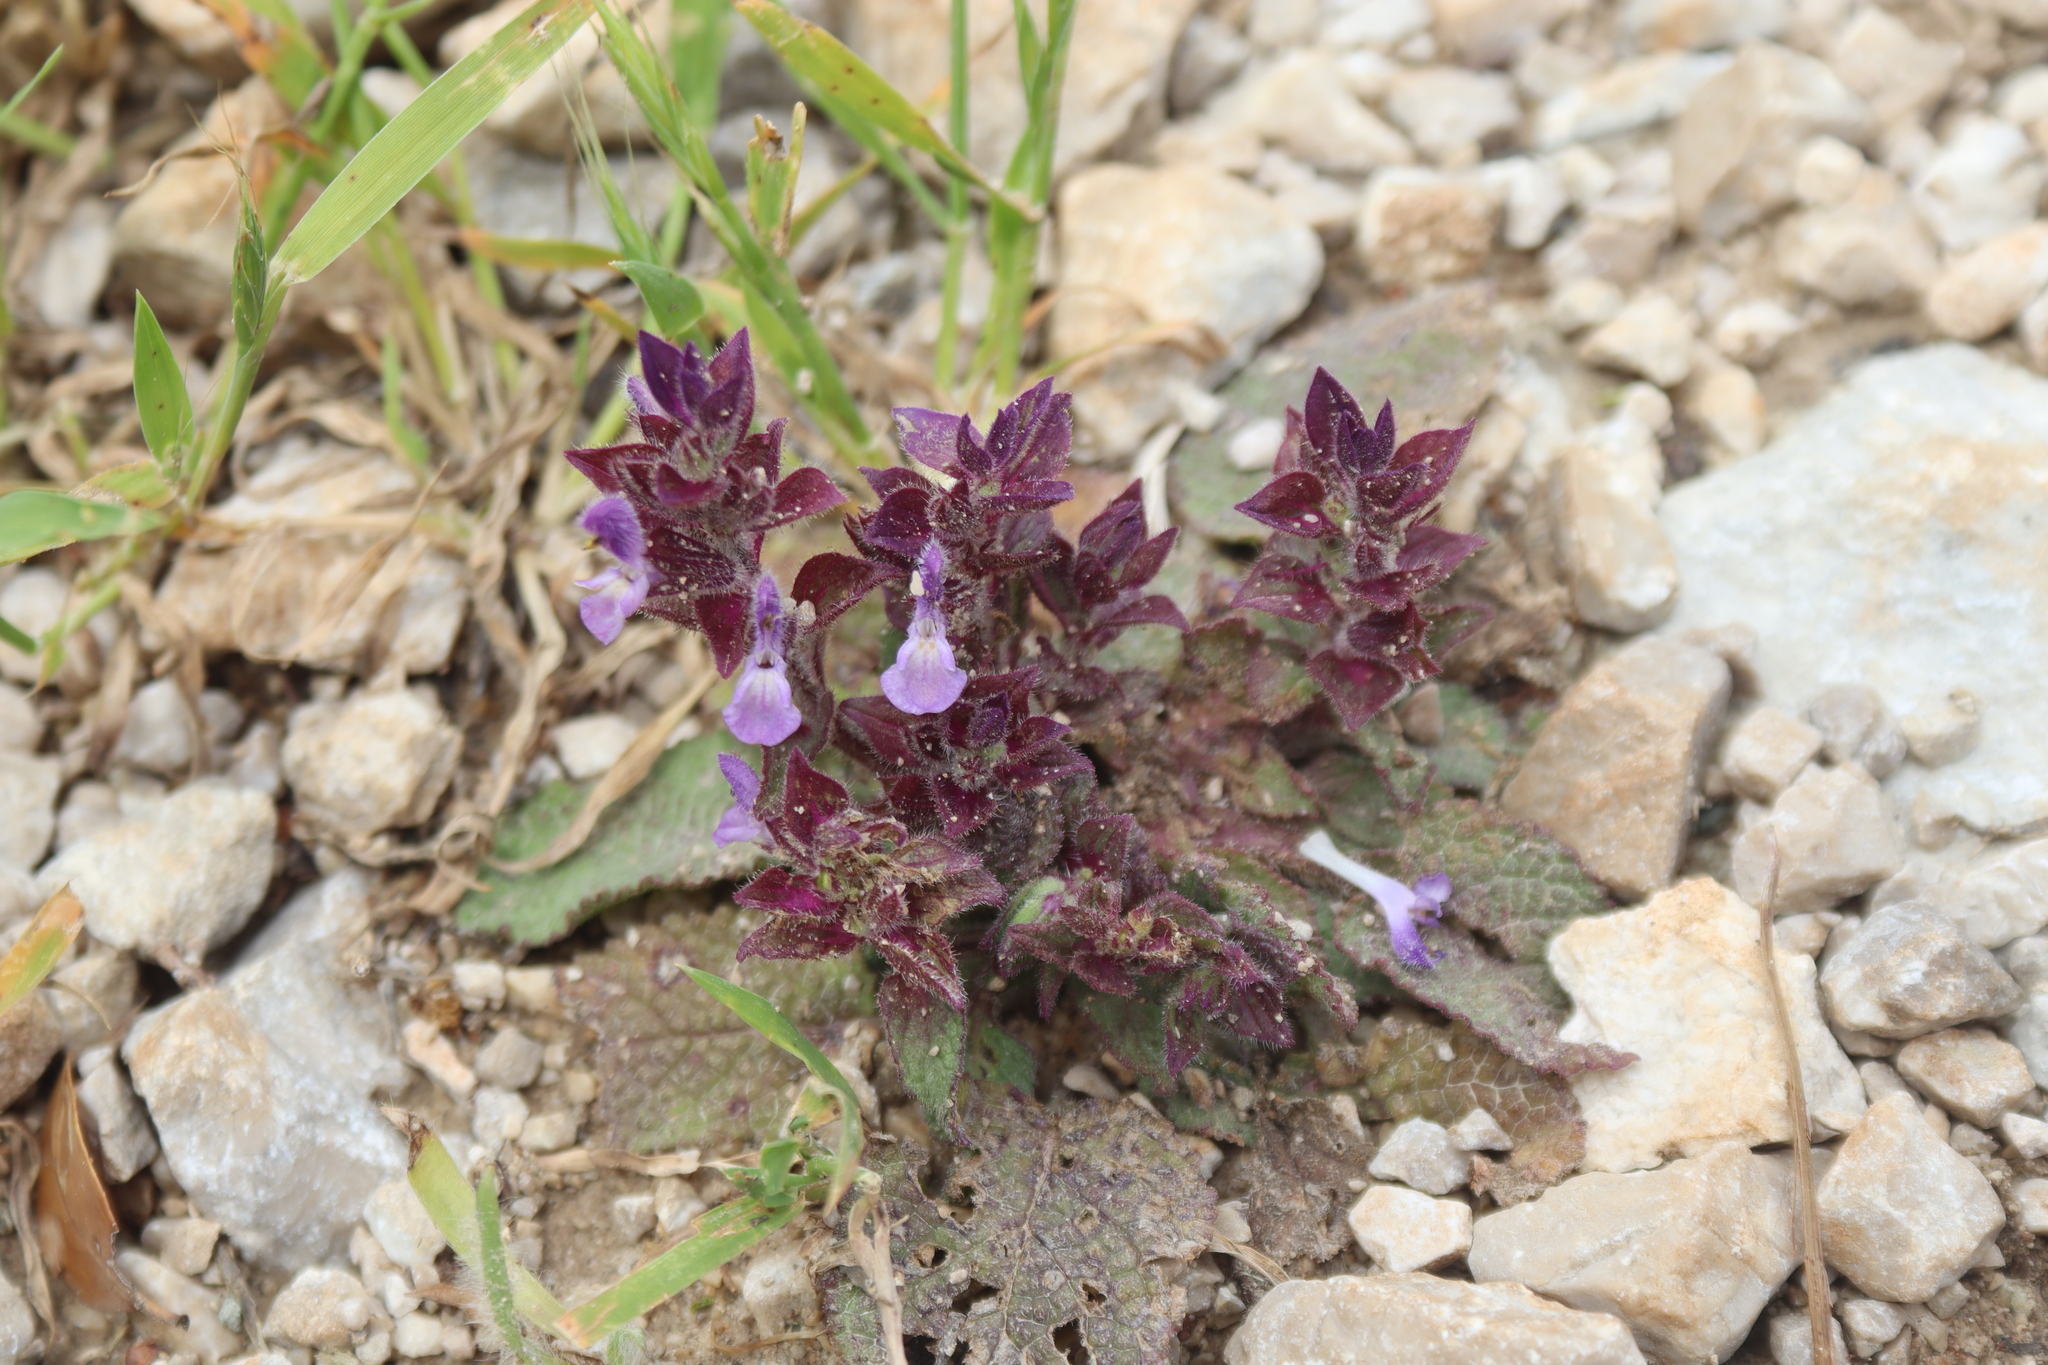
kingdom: Plantae
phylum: Tracheophyta
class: Magnoliopsida
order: Lamiales
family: Lamiaceae
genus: Salvia
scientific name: Salvia viridis
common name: Annual clary
